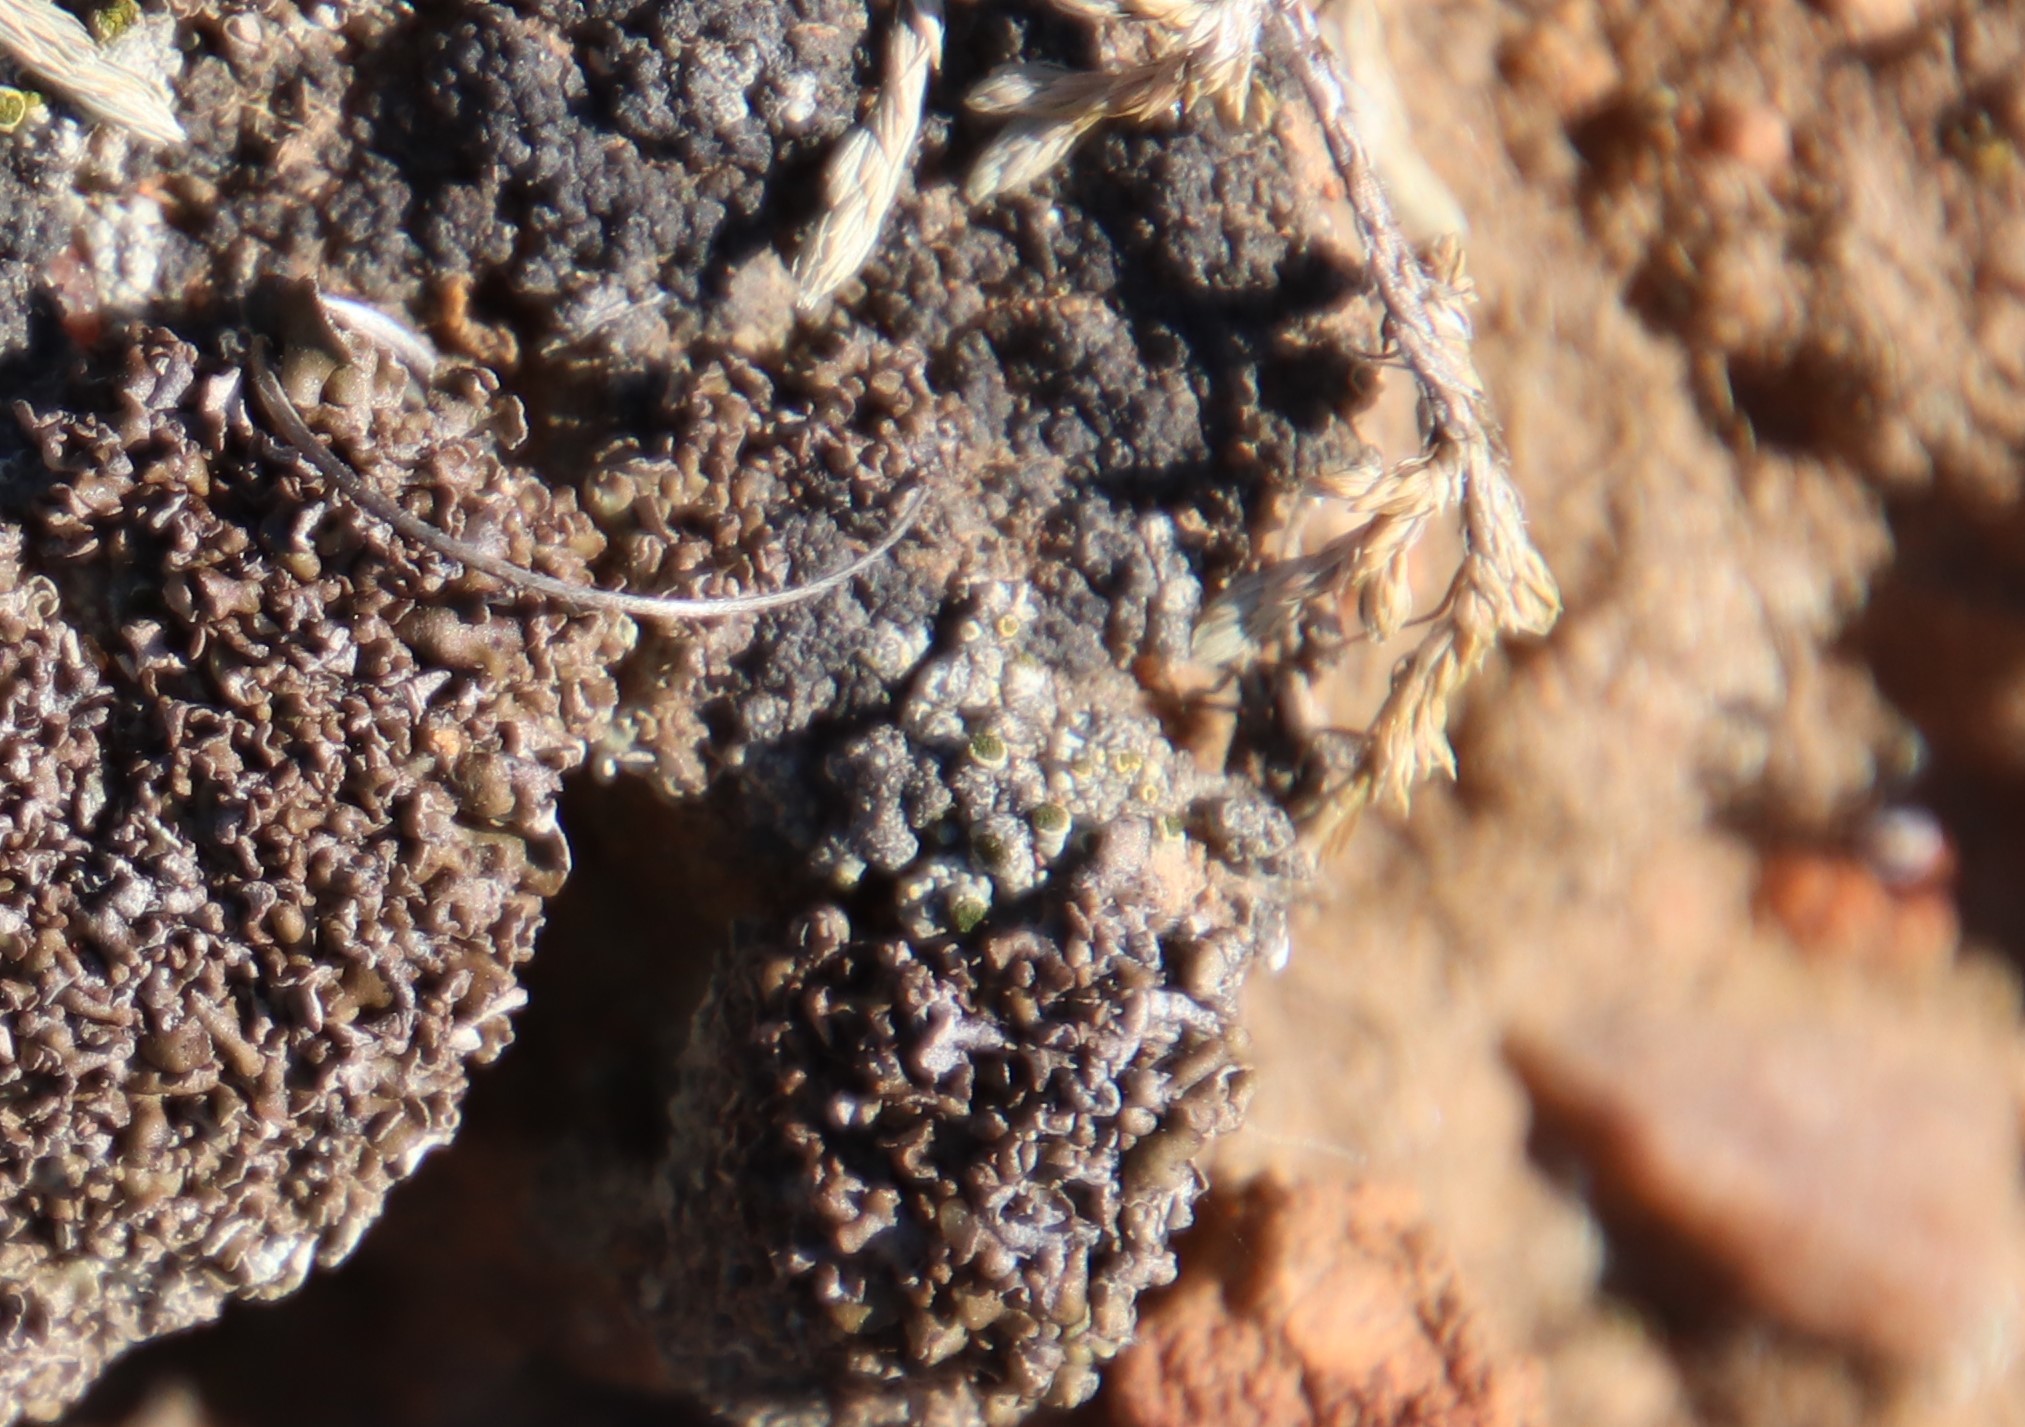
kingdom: Fungi
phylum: Ascomycota
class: Lecanoromycetes
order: Caliciales
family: Caliciaceae
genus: Texosporium
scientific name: Texosporium sancti-jacobi
